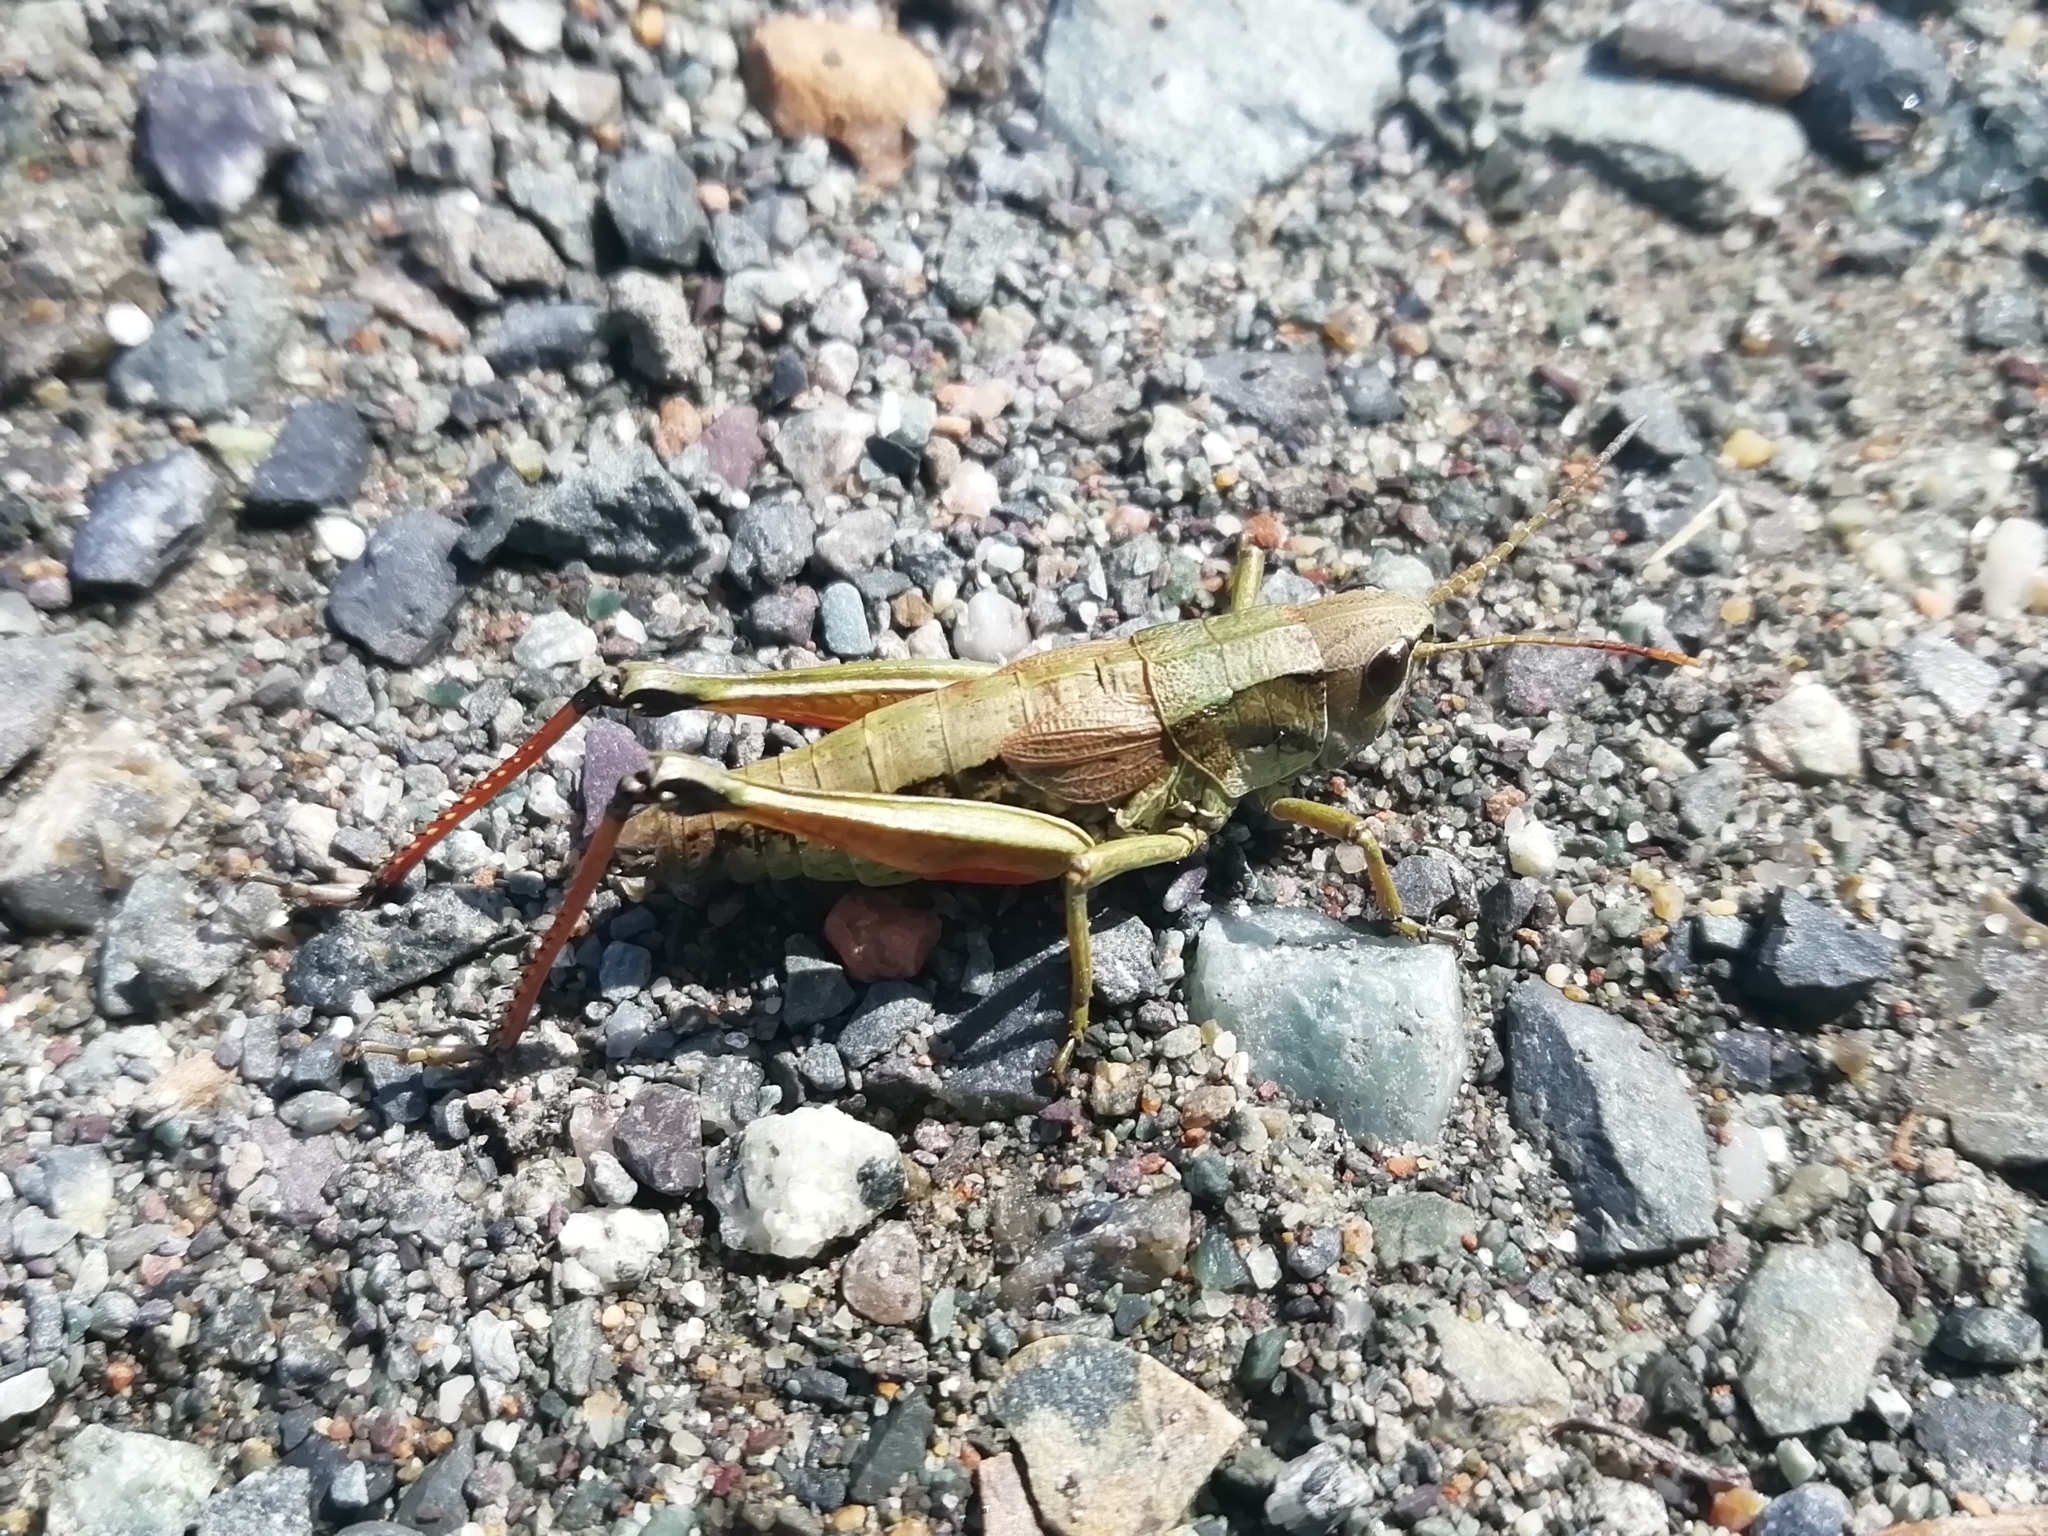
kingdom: Animalia
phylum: Arthropoda
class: Insecta
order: Orthoptera
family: Acrididae
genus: Podismopsis
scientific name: Podismopsis poppiusi
